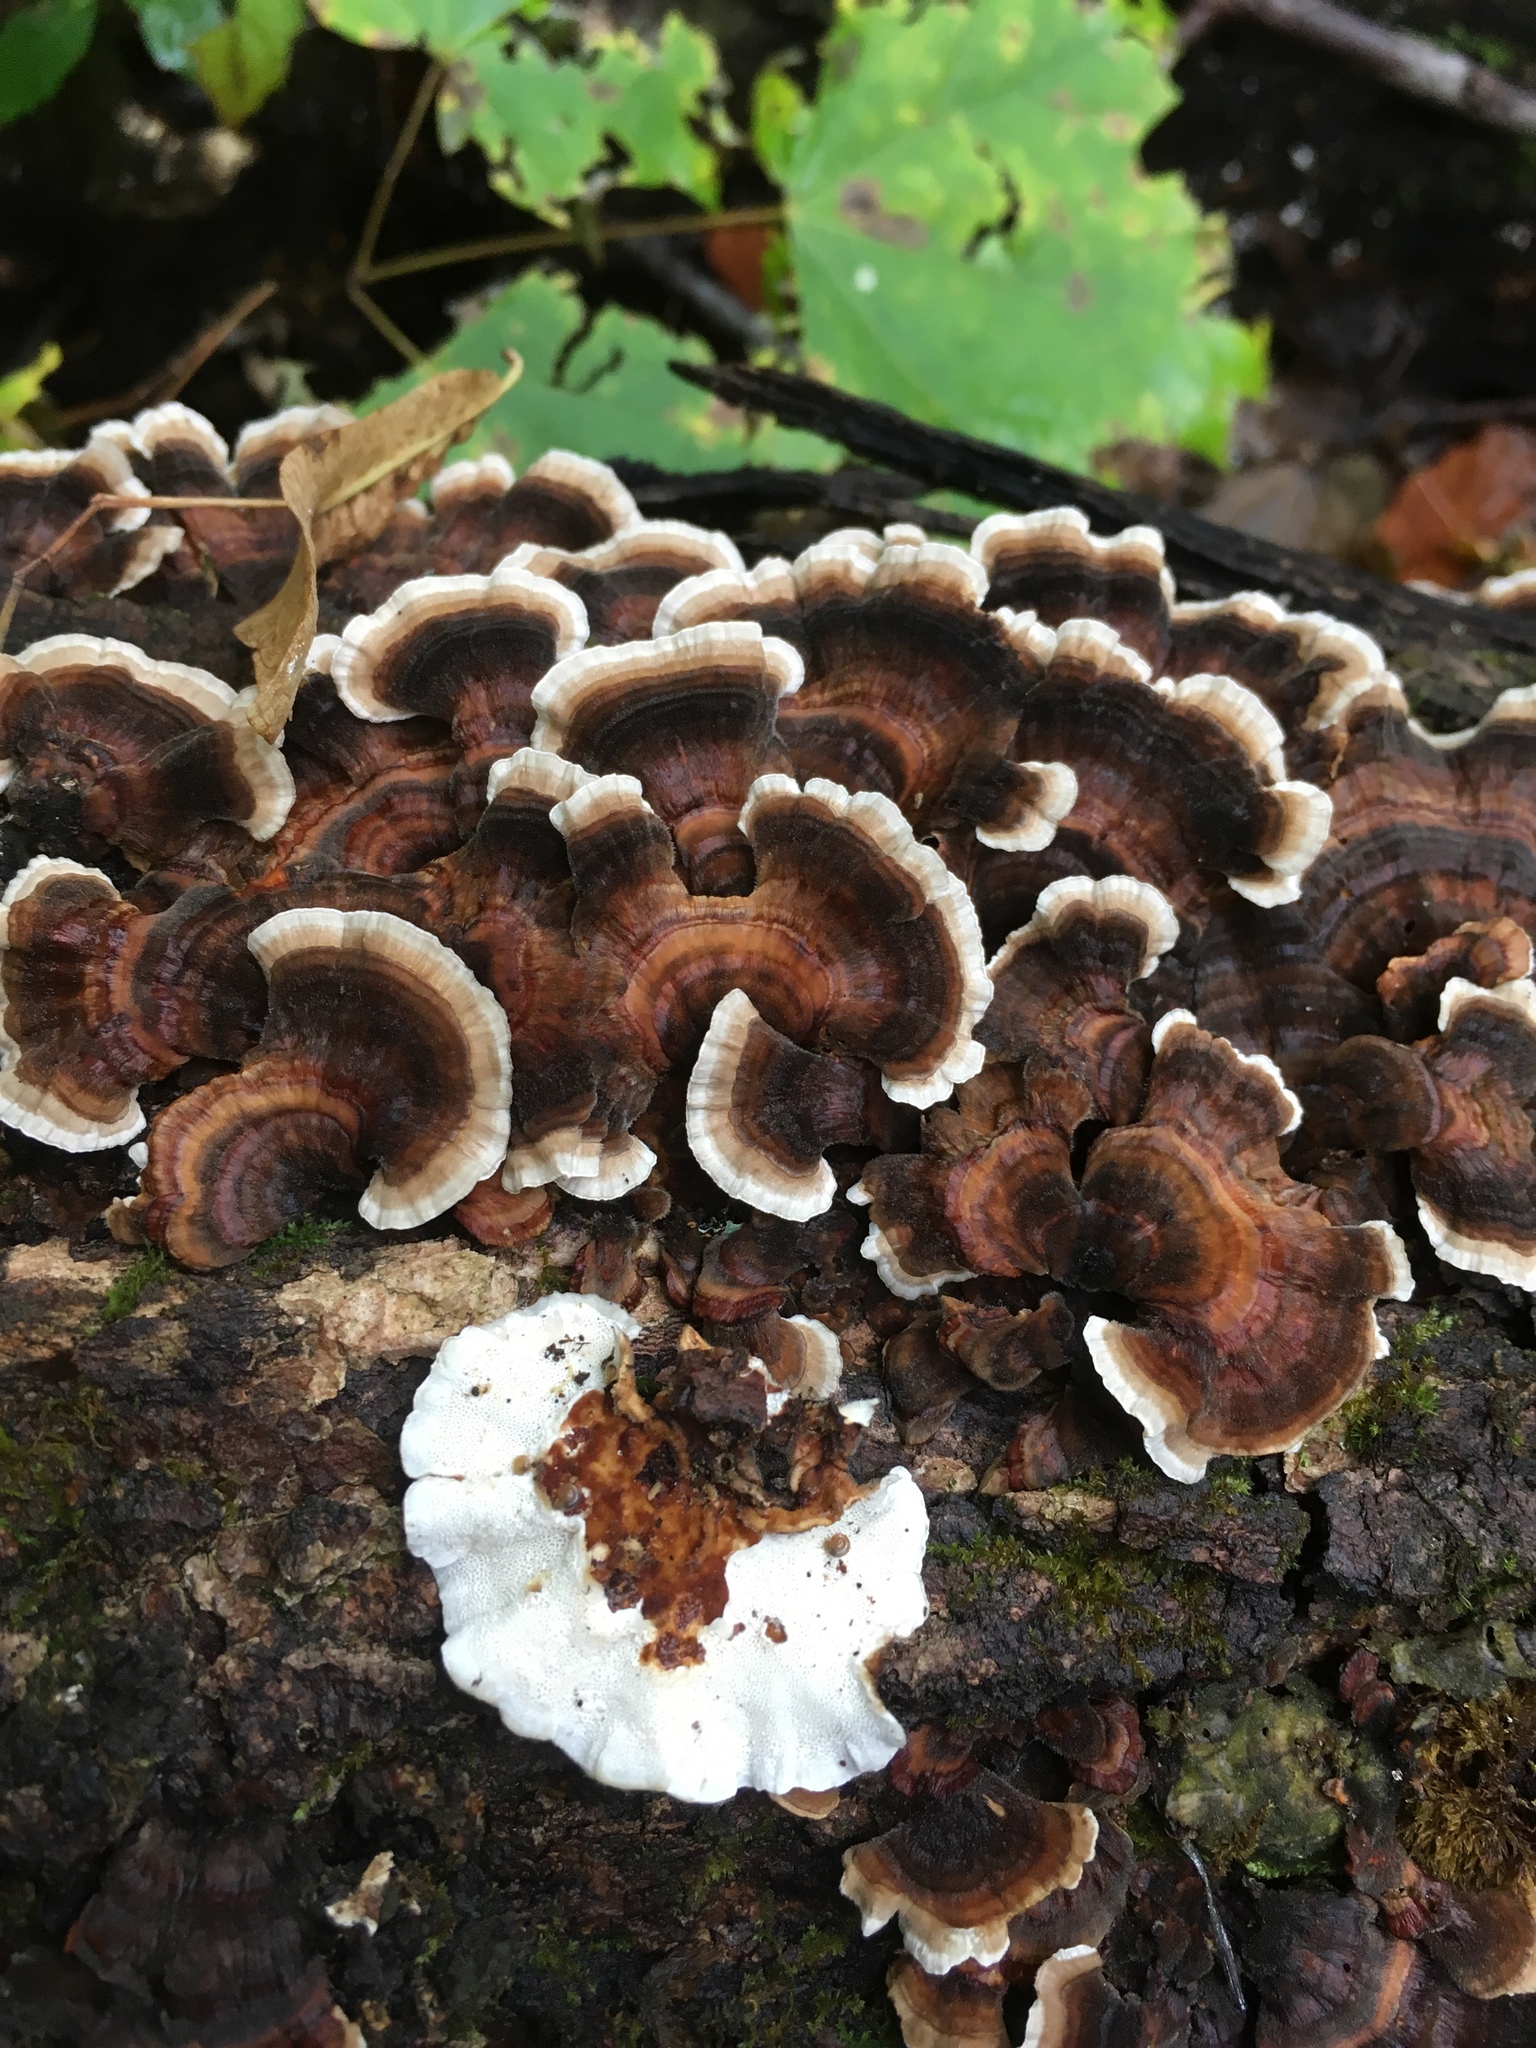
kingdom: Fungi
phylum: Basidiomycota
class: Agaricomycetes
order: Polyporales
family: Polyporaceae
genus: Trametes
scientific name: Trametes versicolor
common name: Turkeytail
